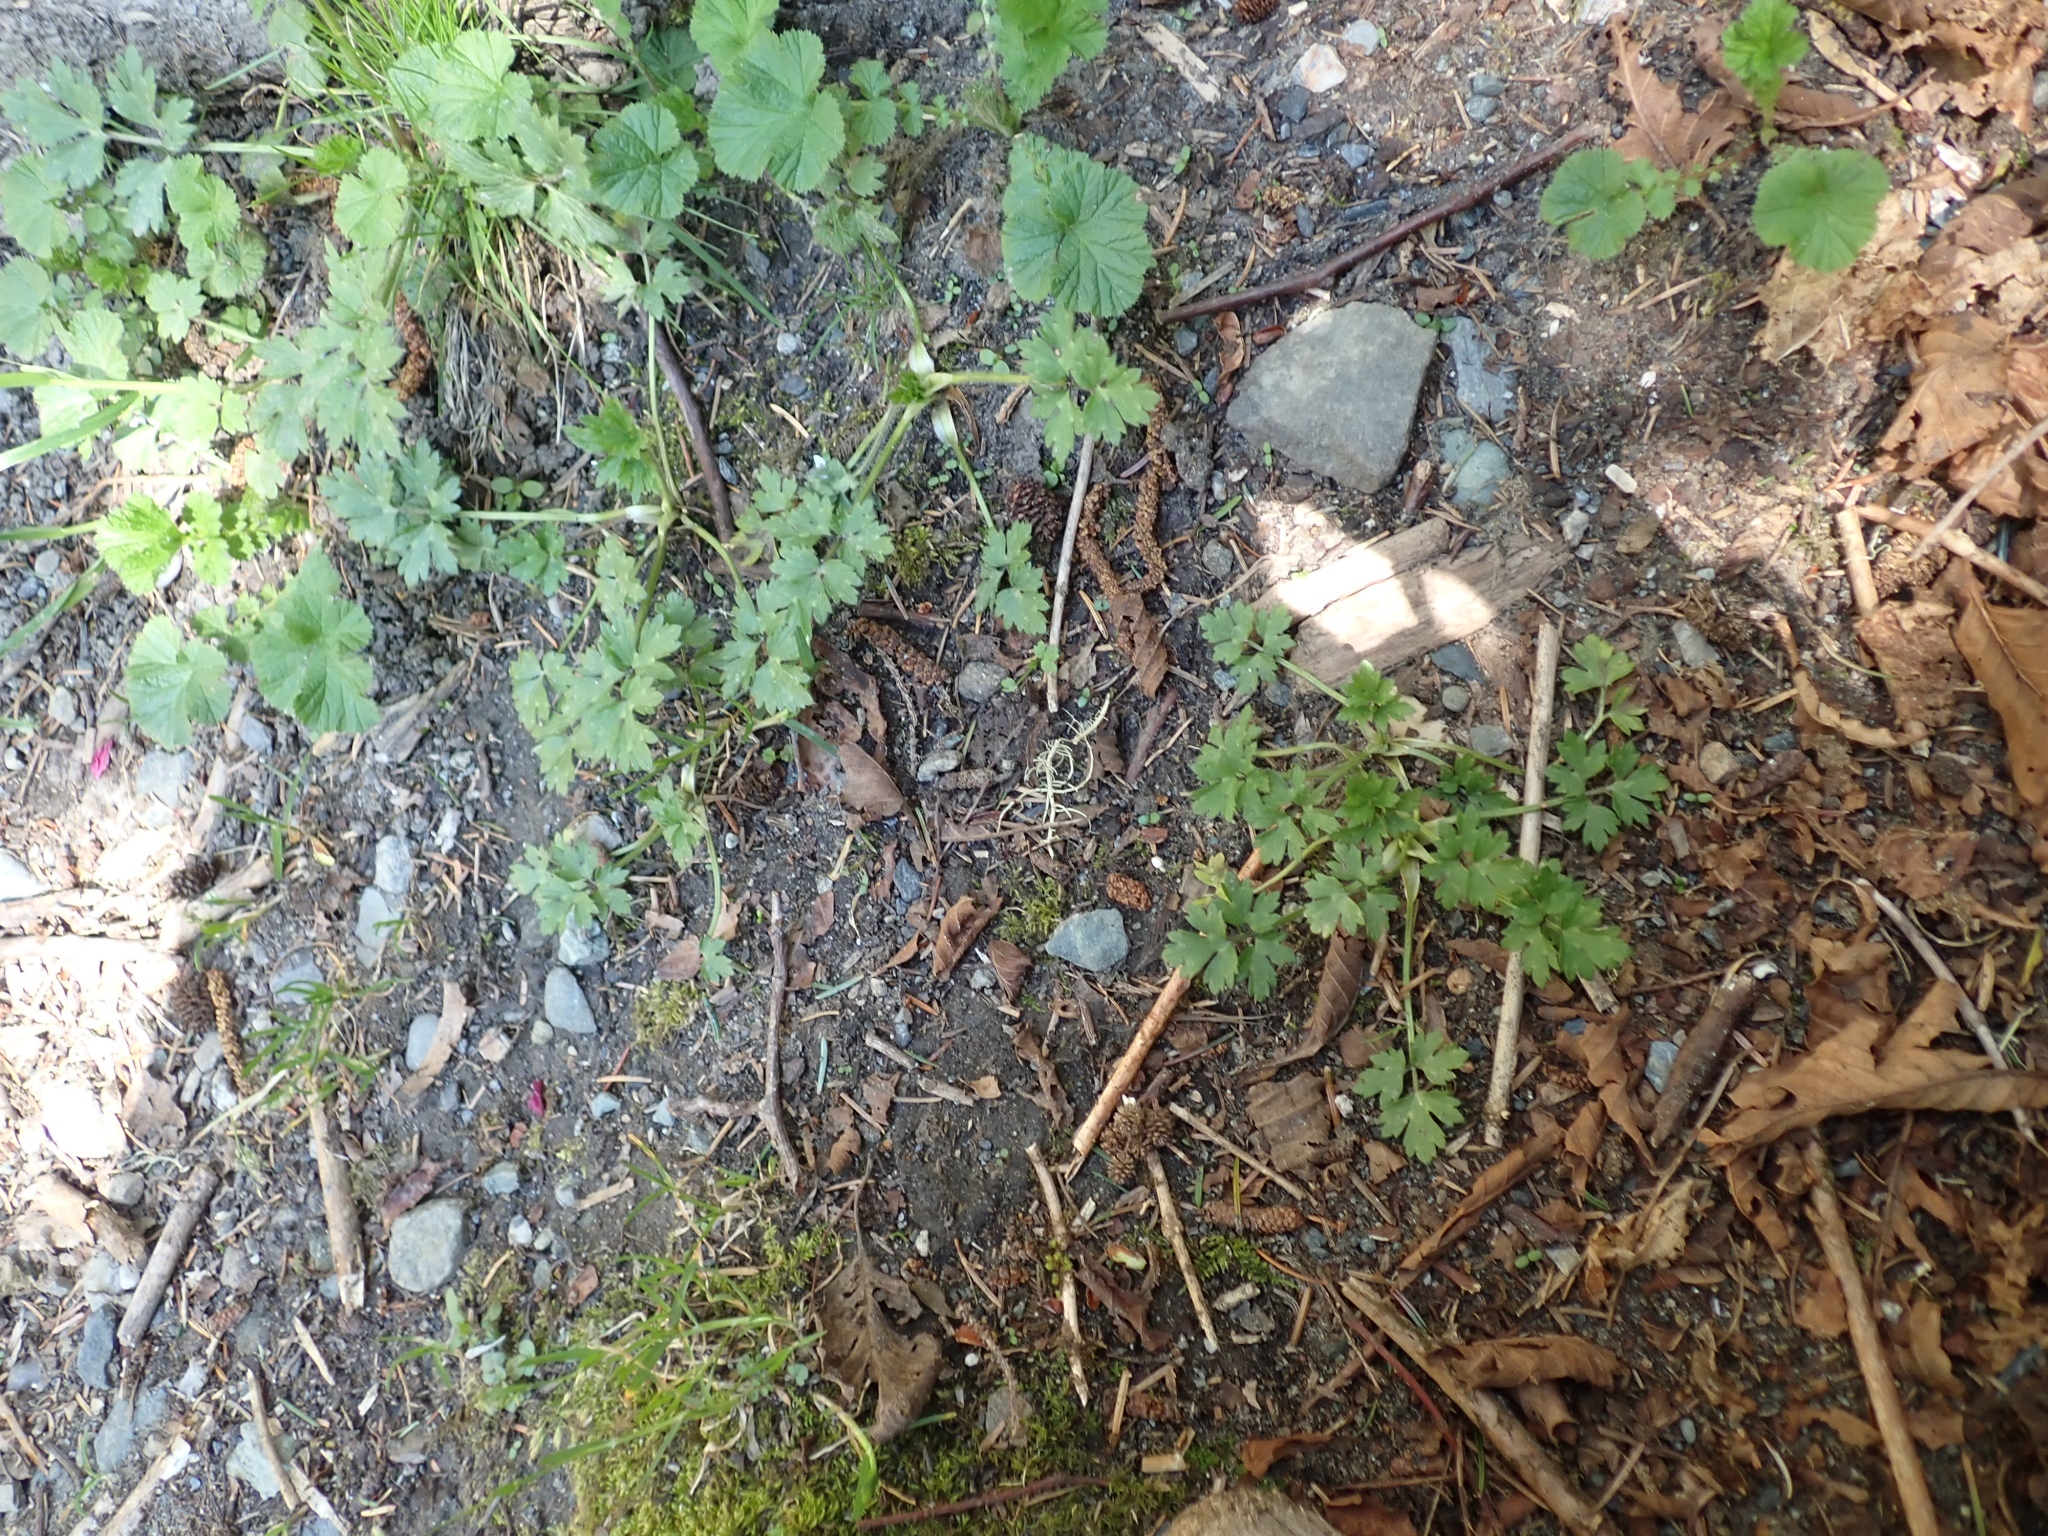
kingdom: Plantae
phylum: Tracheophyta
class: Magnoliopsida
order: Ranunculales
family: Ranunculaceae
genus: Ranunculus
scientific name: Ranunculus repens
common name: Creeping buttercup
